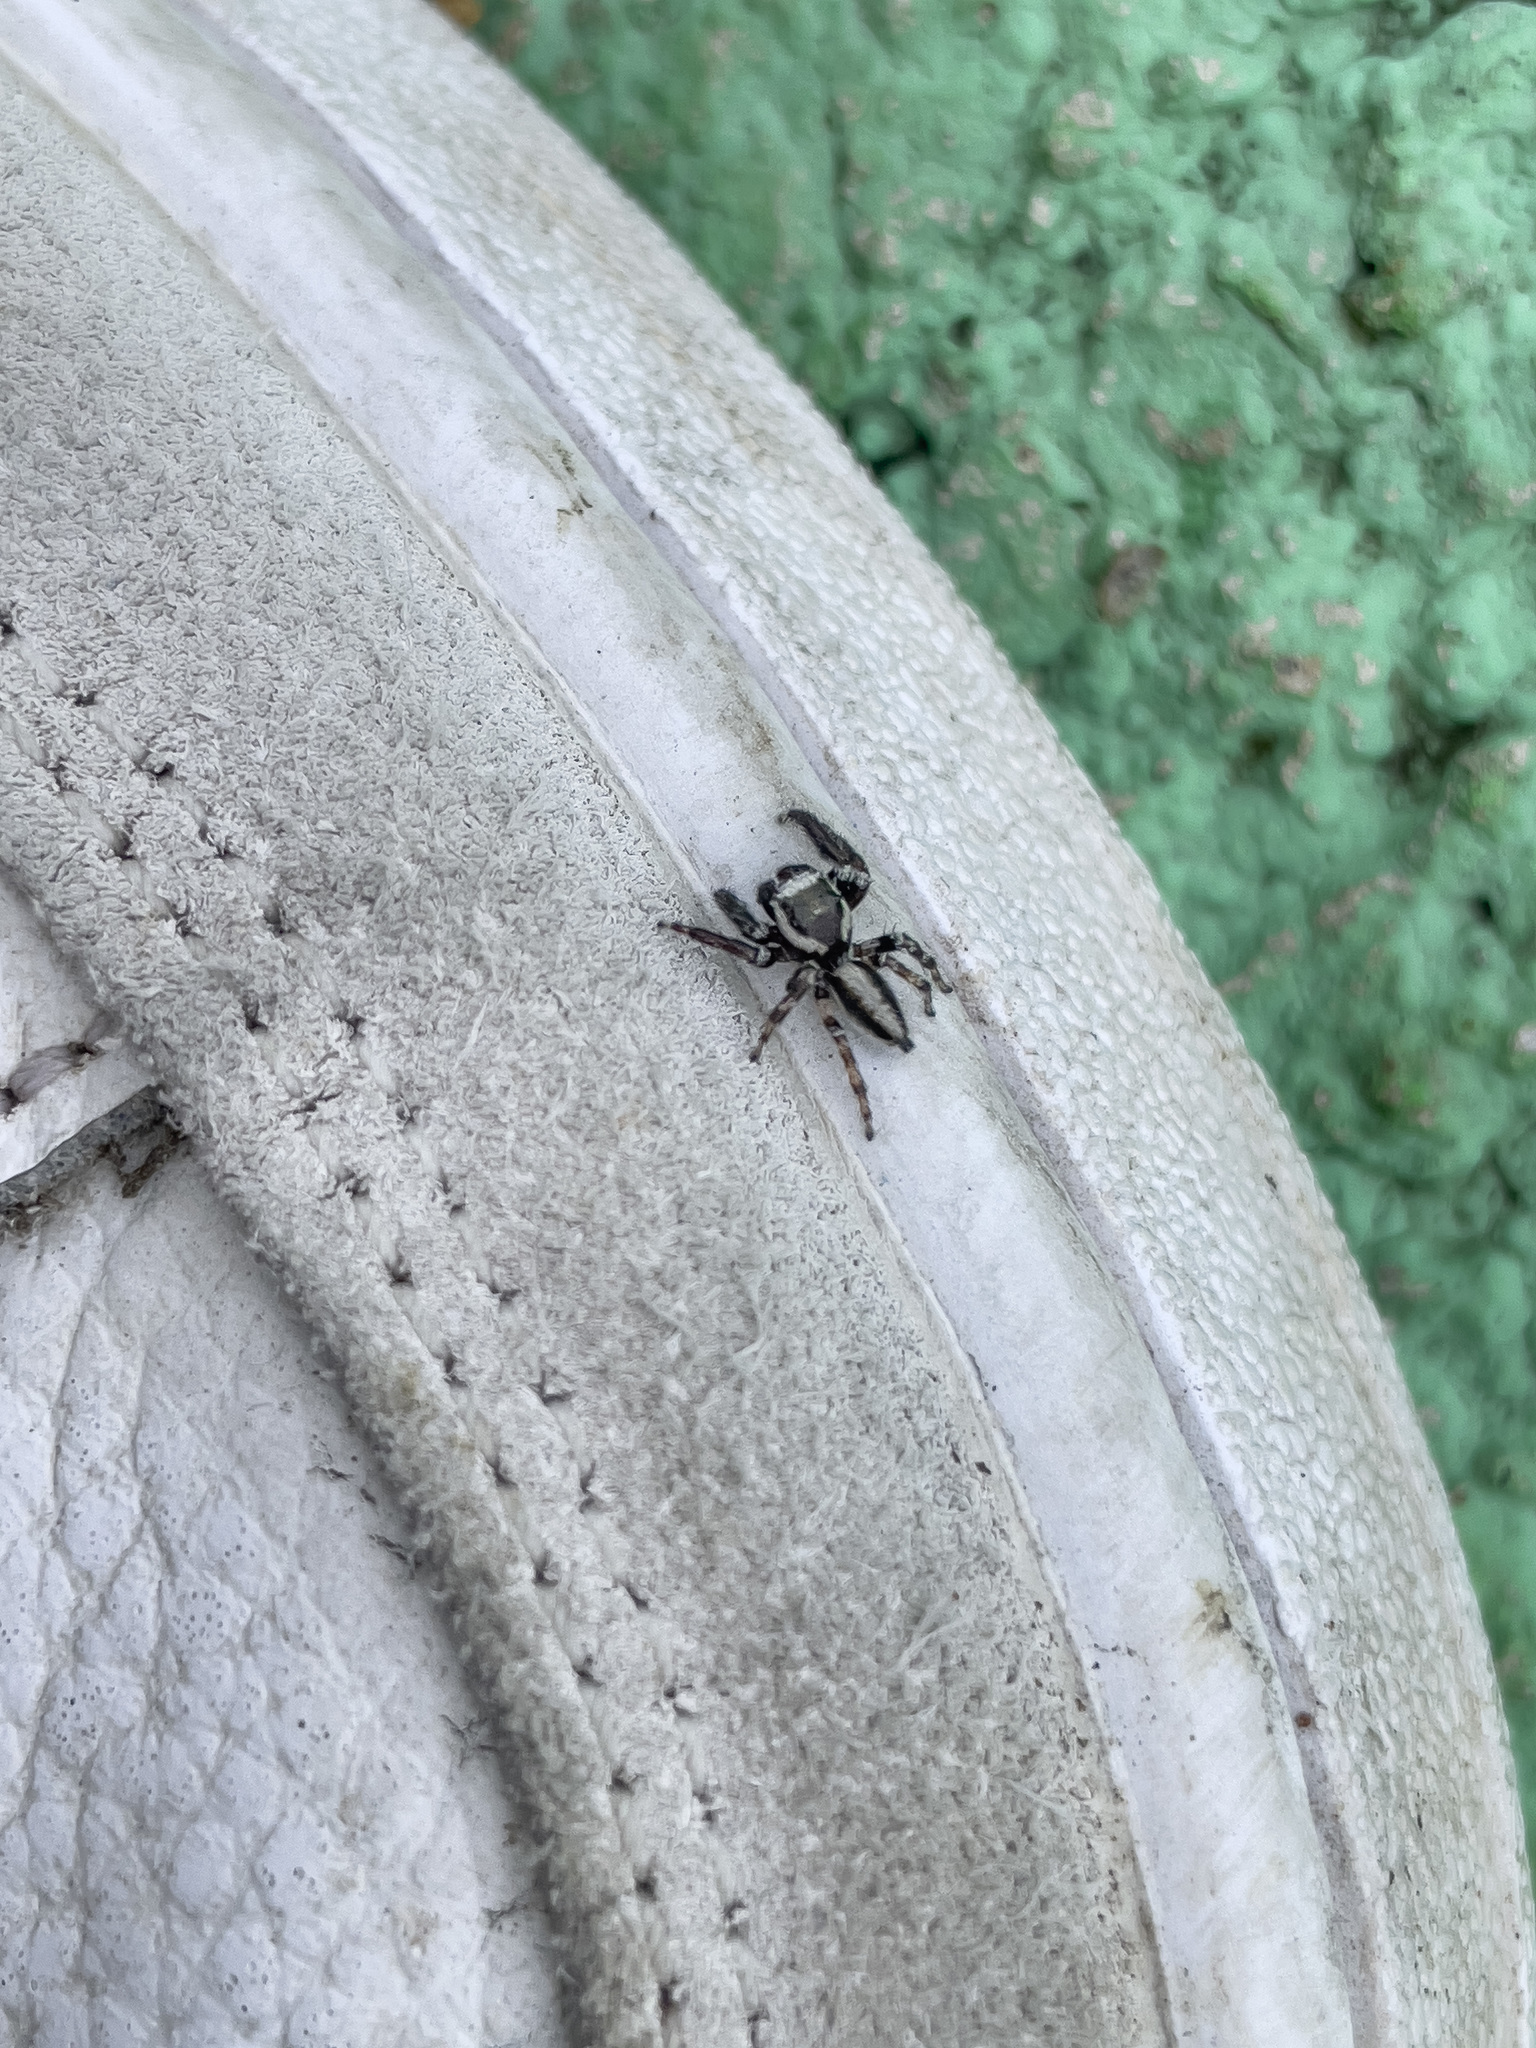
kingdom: Animalia
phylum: Arthropoda
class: Arachnida
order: Araneae
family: Salticidae
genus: Evarcha
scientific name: Evarcha pococki
